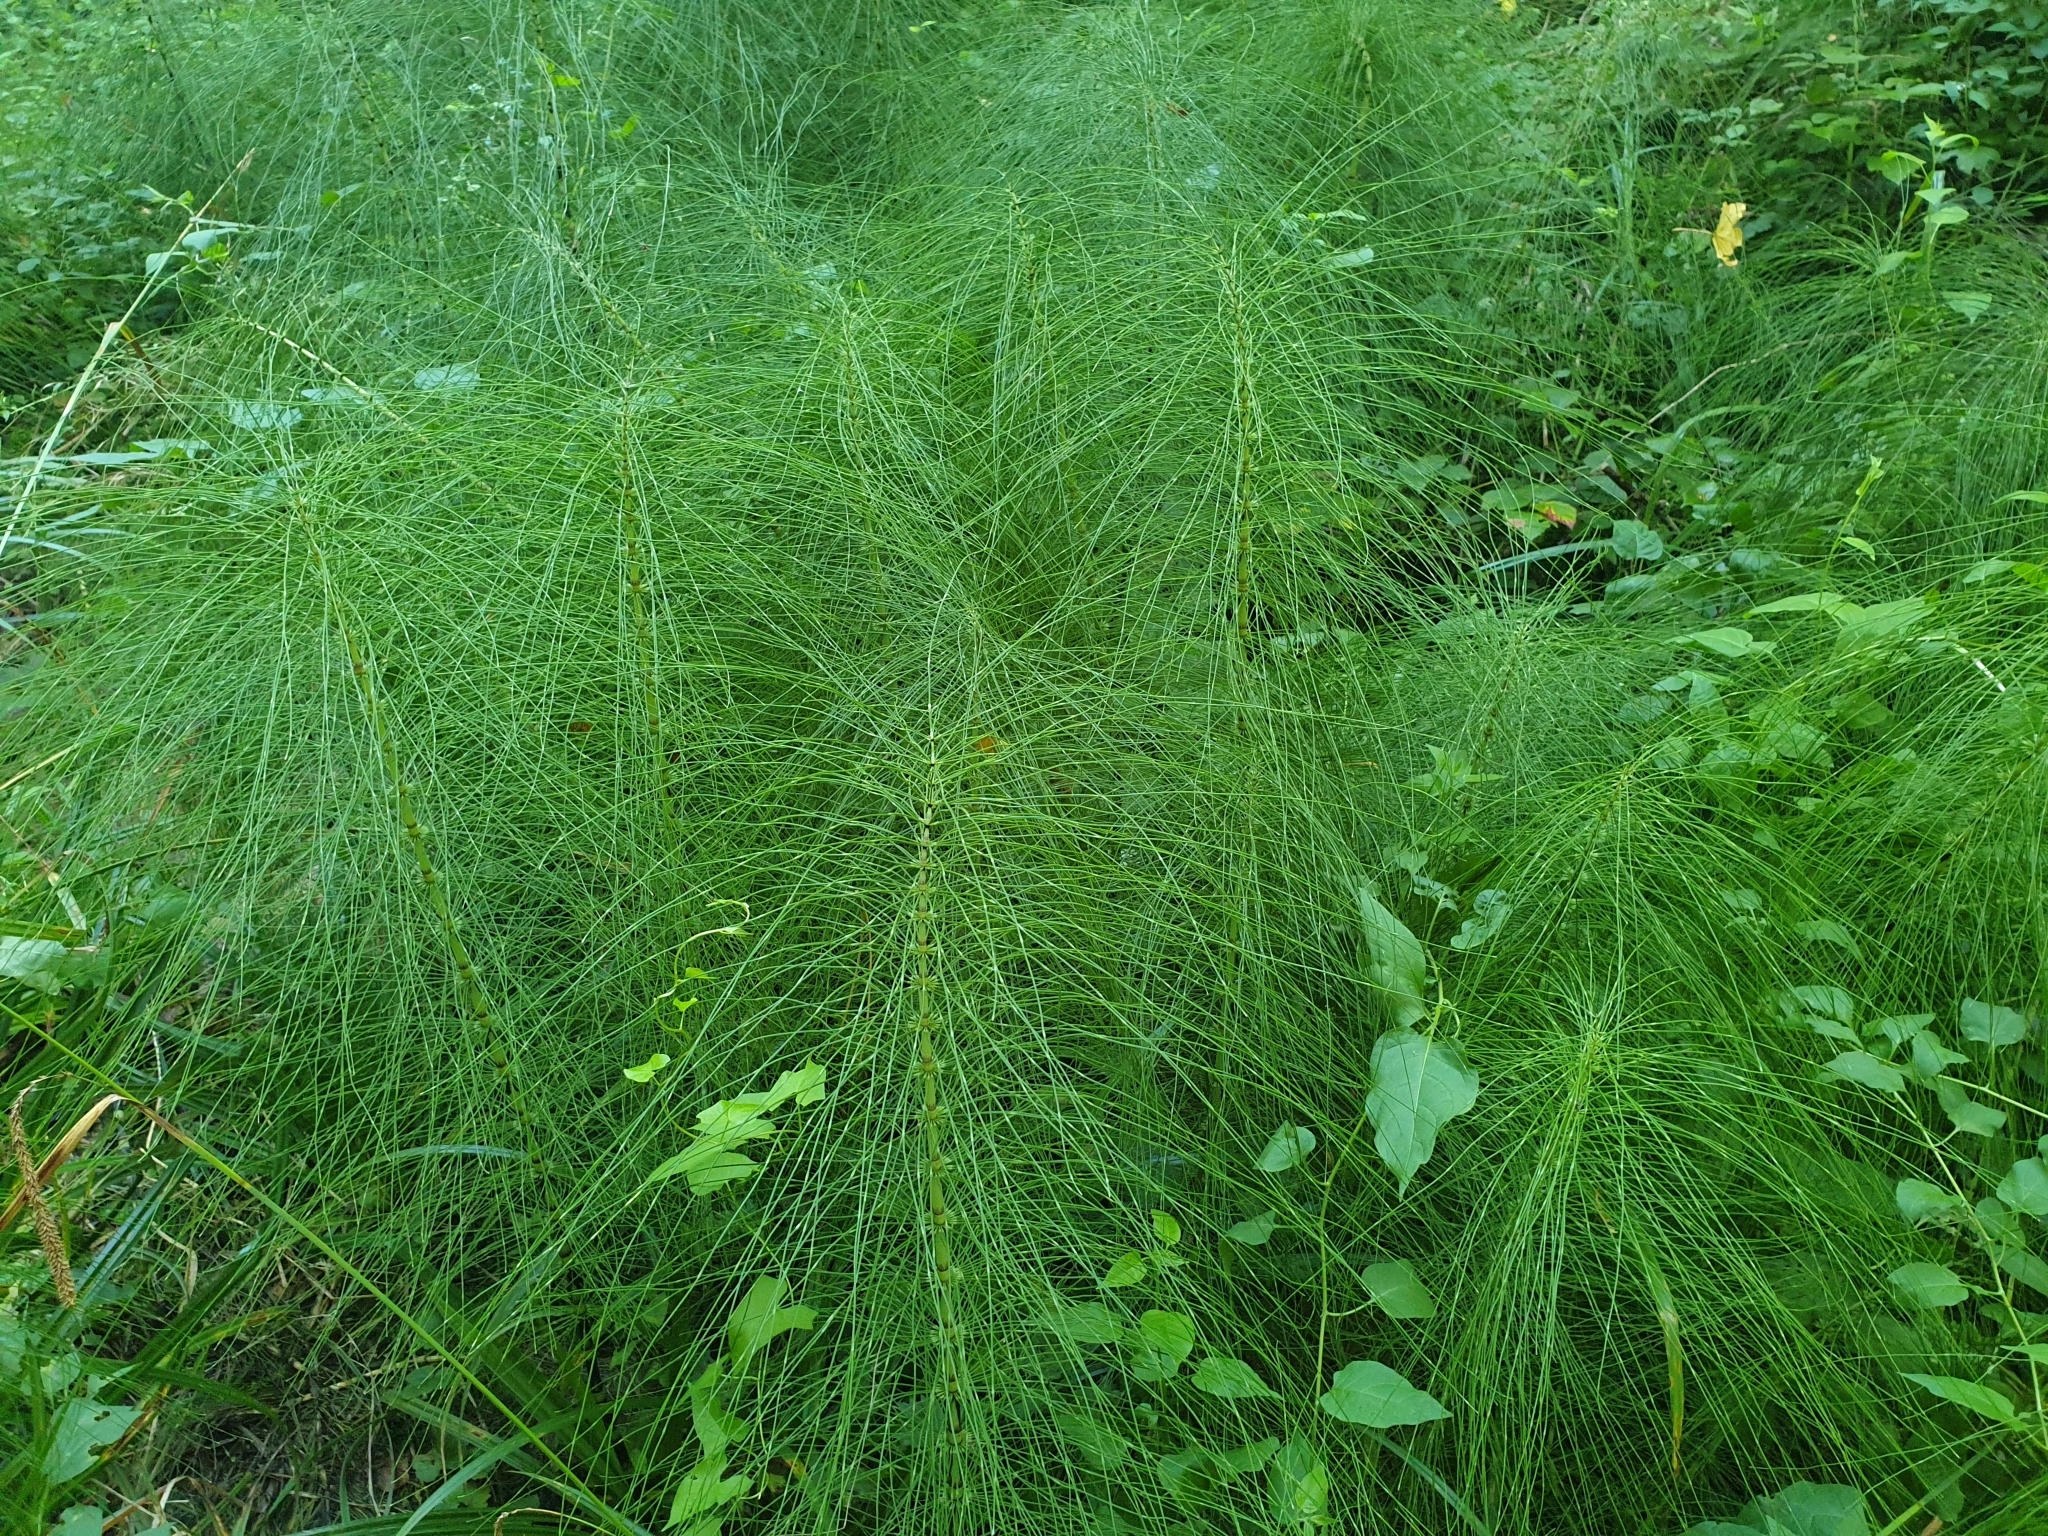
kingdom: Plantae
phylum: Tracheophyta
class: Polypodiopsida
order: Equisetales
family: Equisetaceae
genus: Equisetum
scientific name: Equisetum telmateia
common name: Great horsetail
